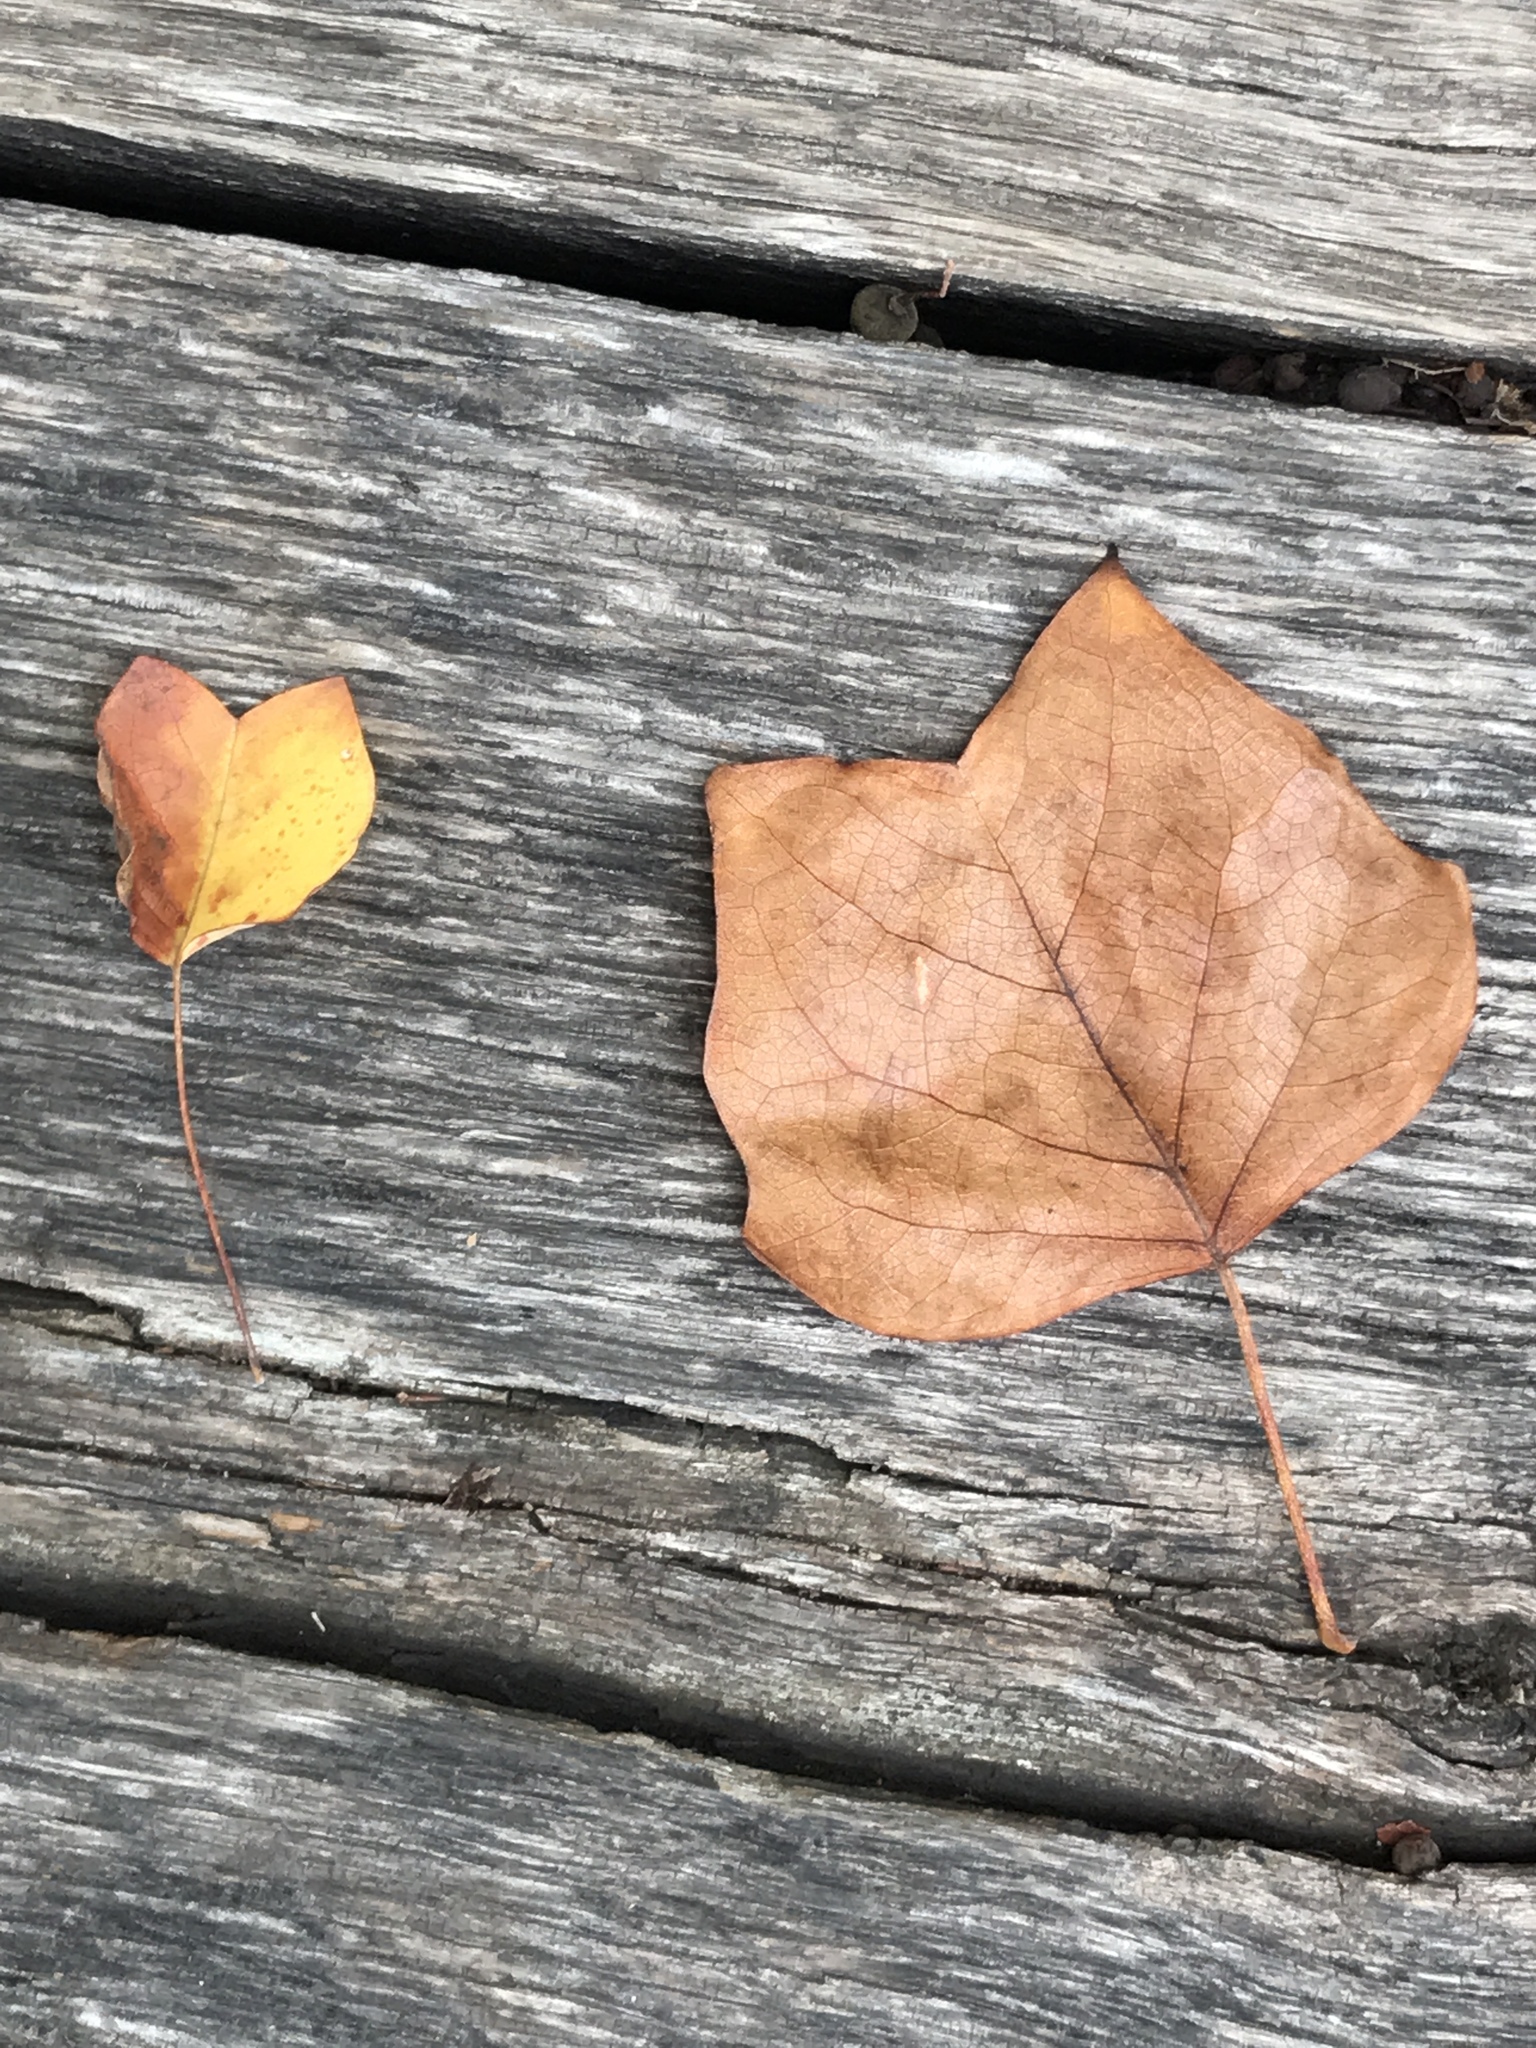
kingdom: Plantae
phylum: Tracheophyta
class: Magnoliopsida
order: Magnoliales
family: Magnoliaceae
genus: Liriodendron
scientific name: Liriodendron tulipifera
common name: Tulip tree
